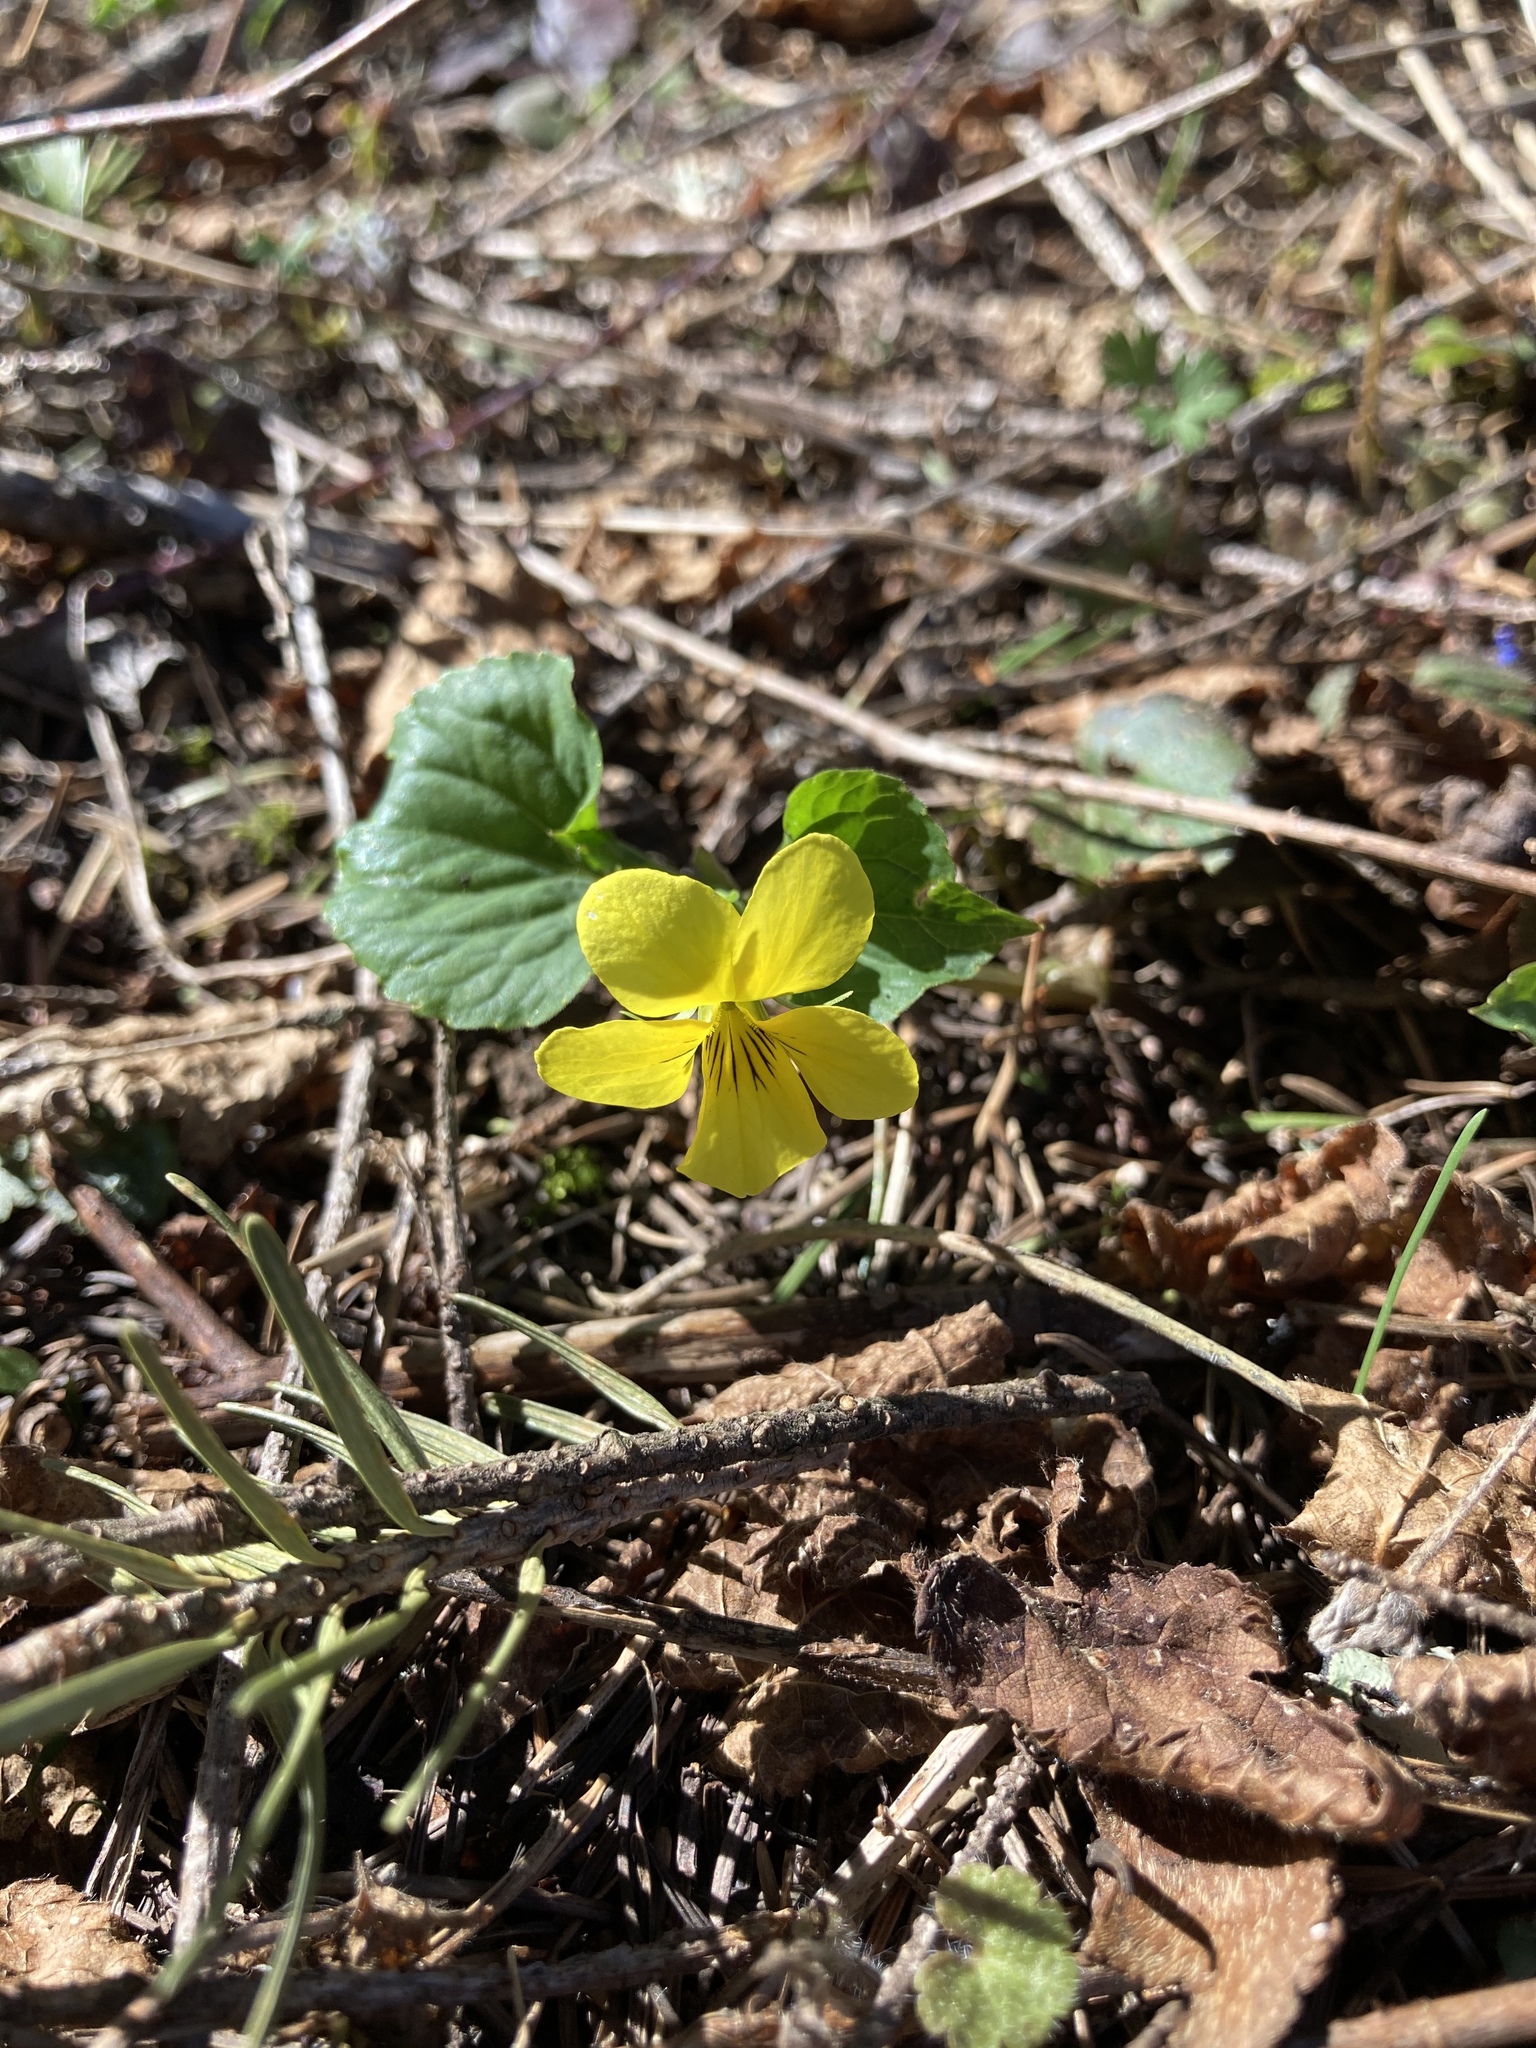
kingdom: Plantae
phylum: Tracheophyta
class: Magnoliopsida
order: Malpighiales
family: Violaceae
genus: Viola
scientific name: Viola glabella
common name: Stream violet
